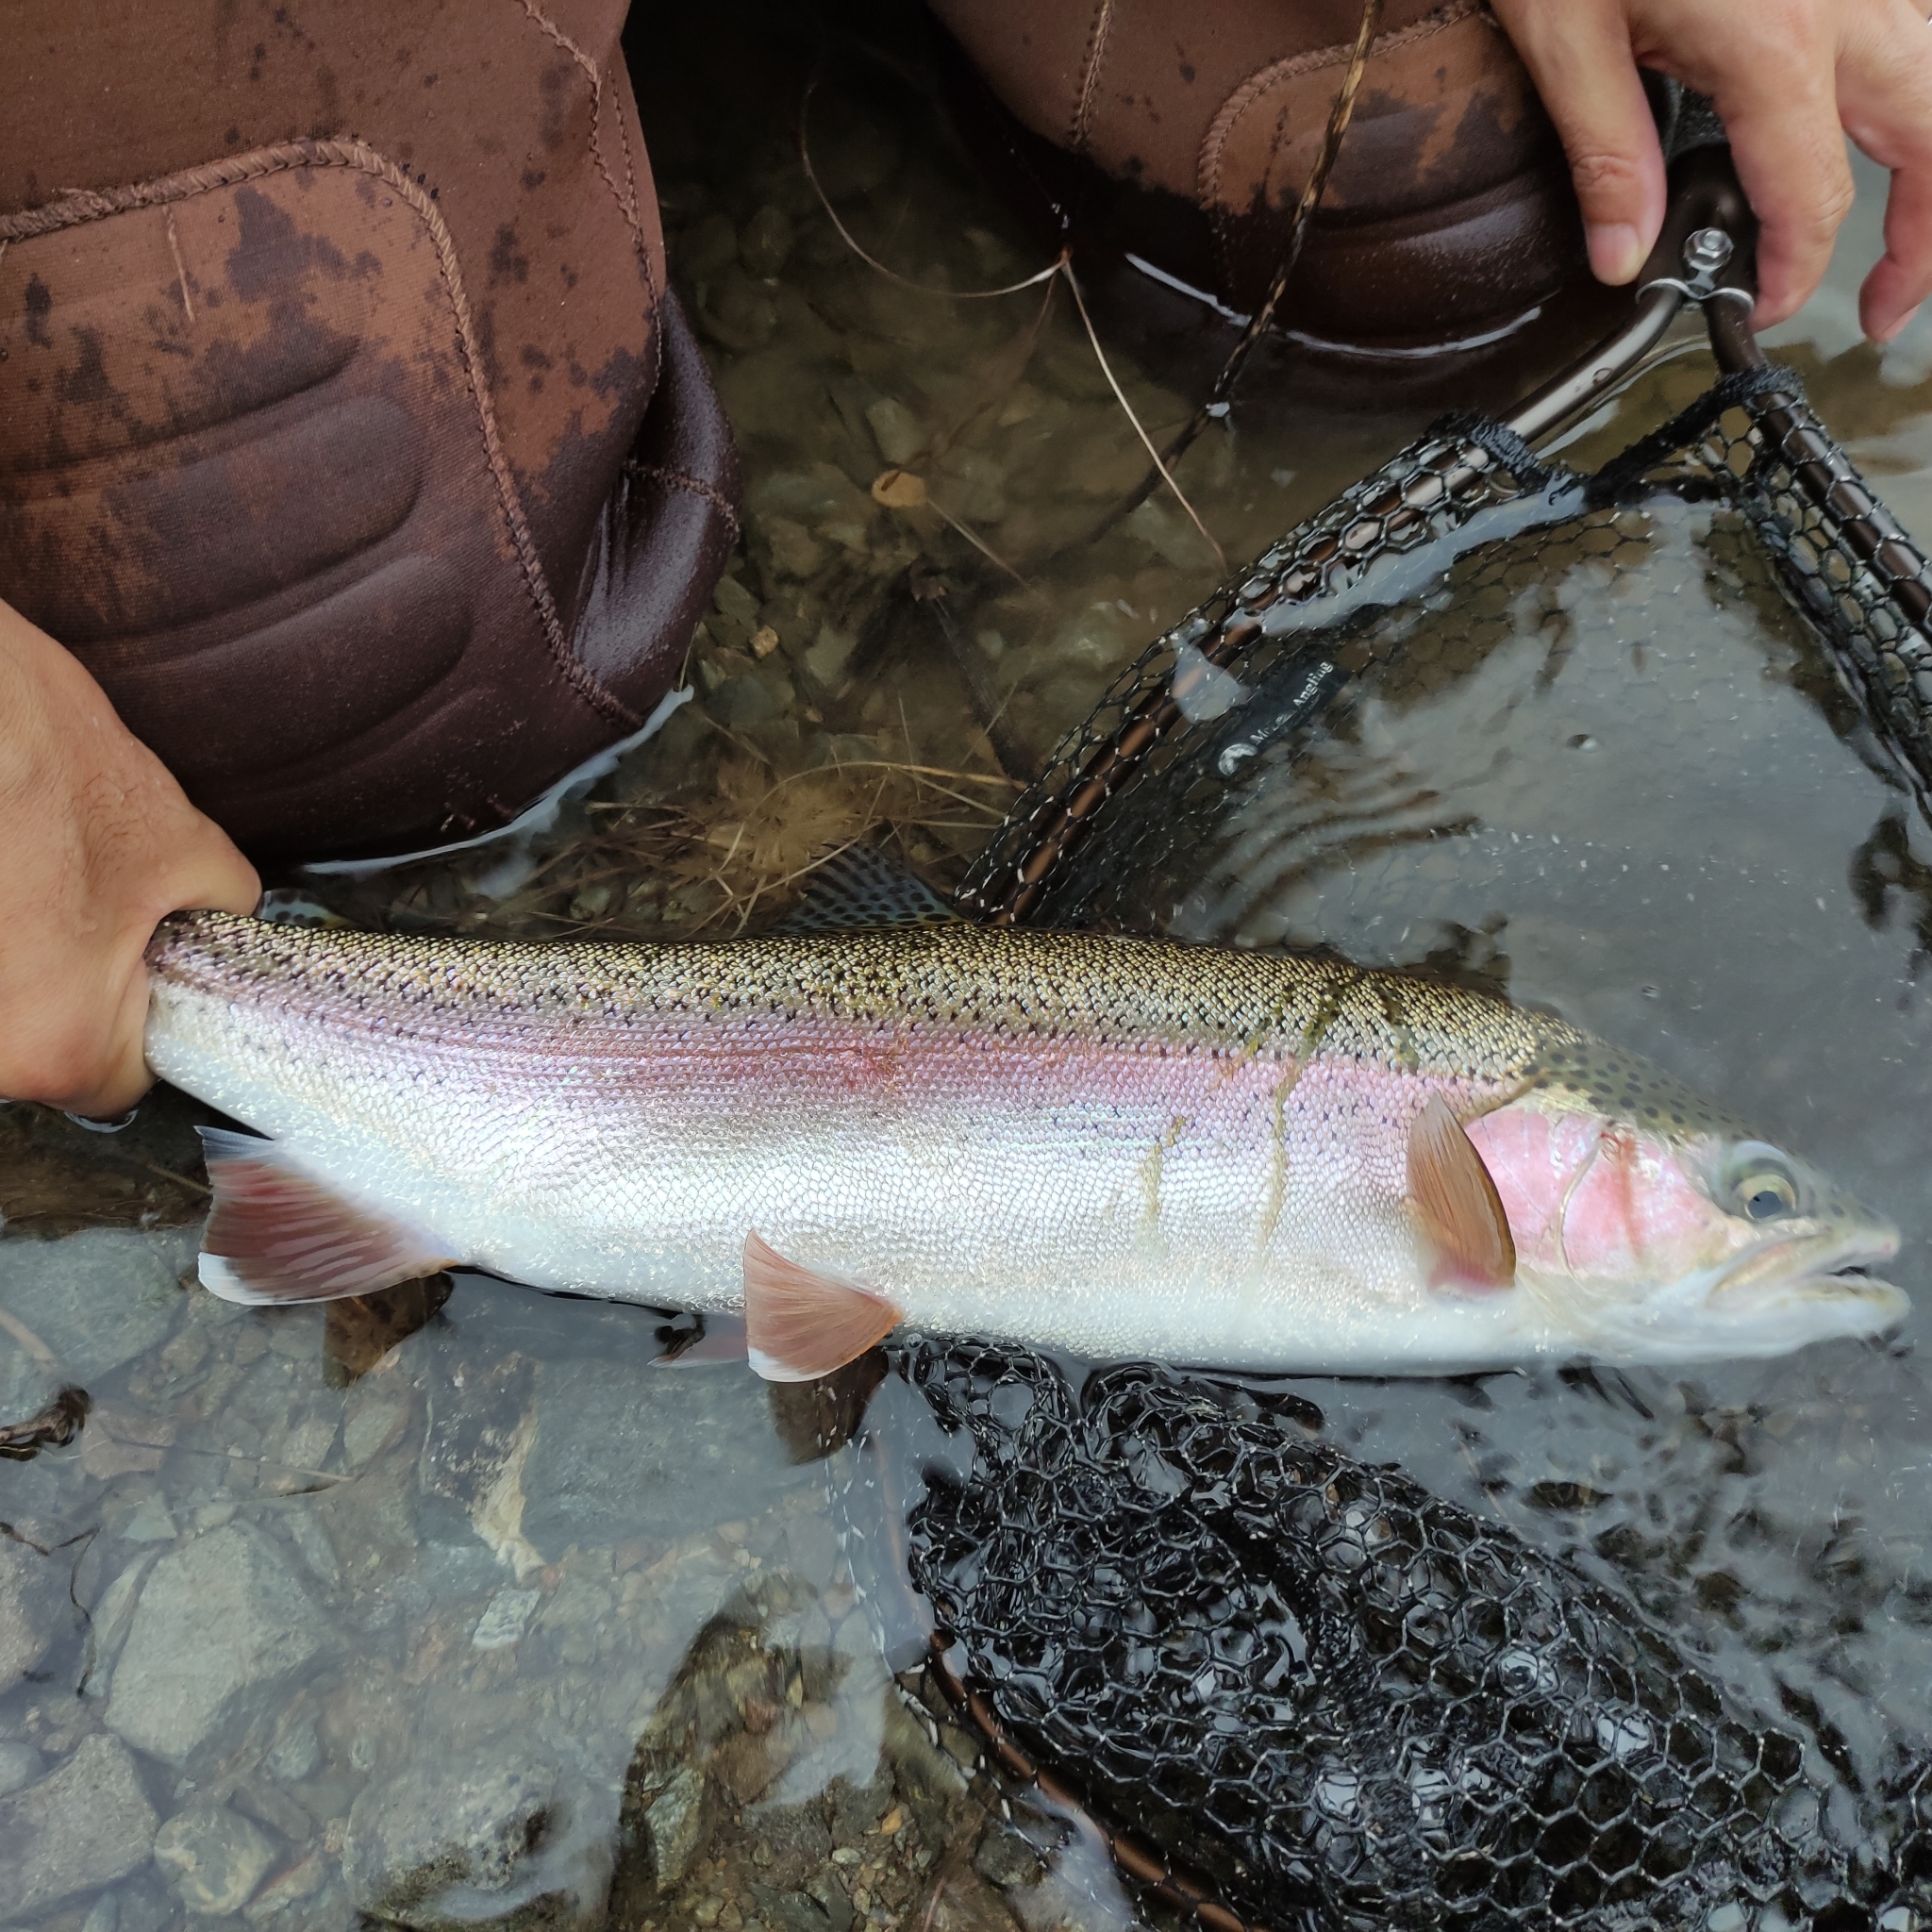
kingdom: Animalia
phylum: Chordata
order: Salmoniformes
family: Salmonidae
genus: Oncorhynchus
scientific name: Oncorhynchus mykiss
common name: Rainbow trout
